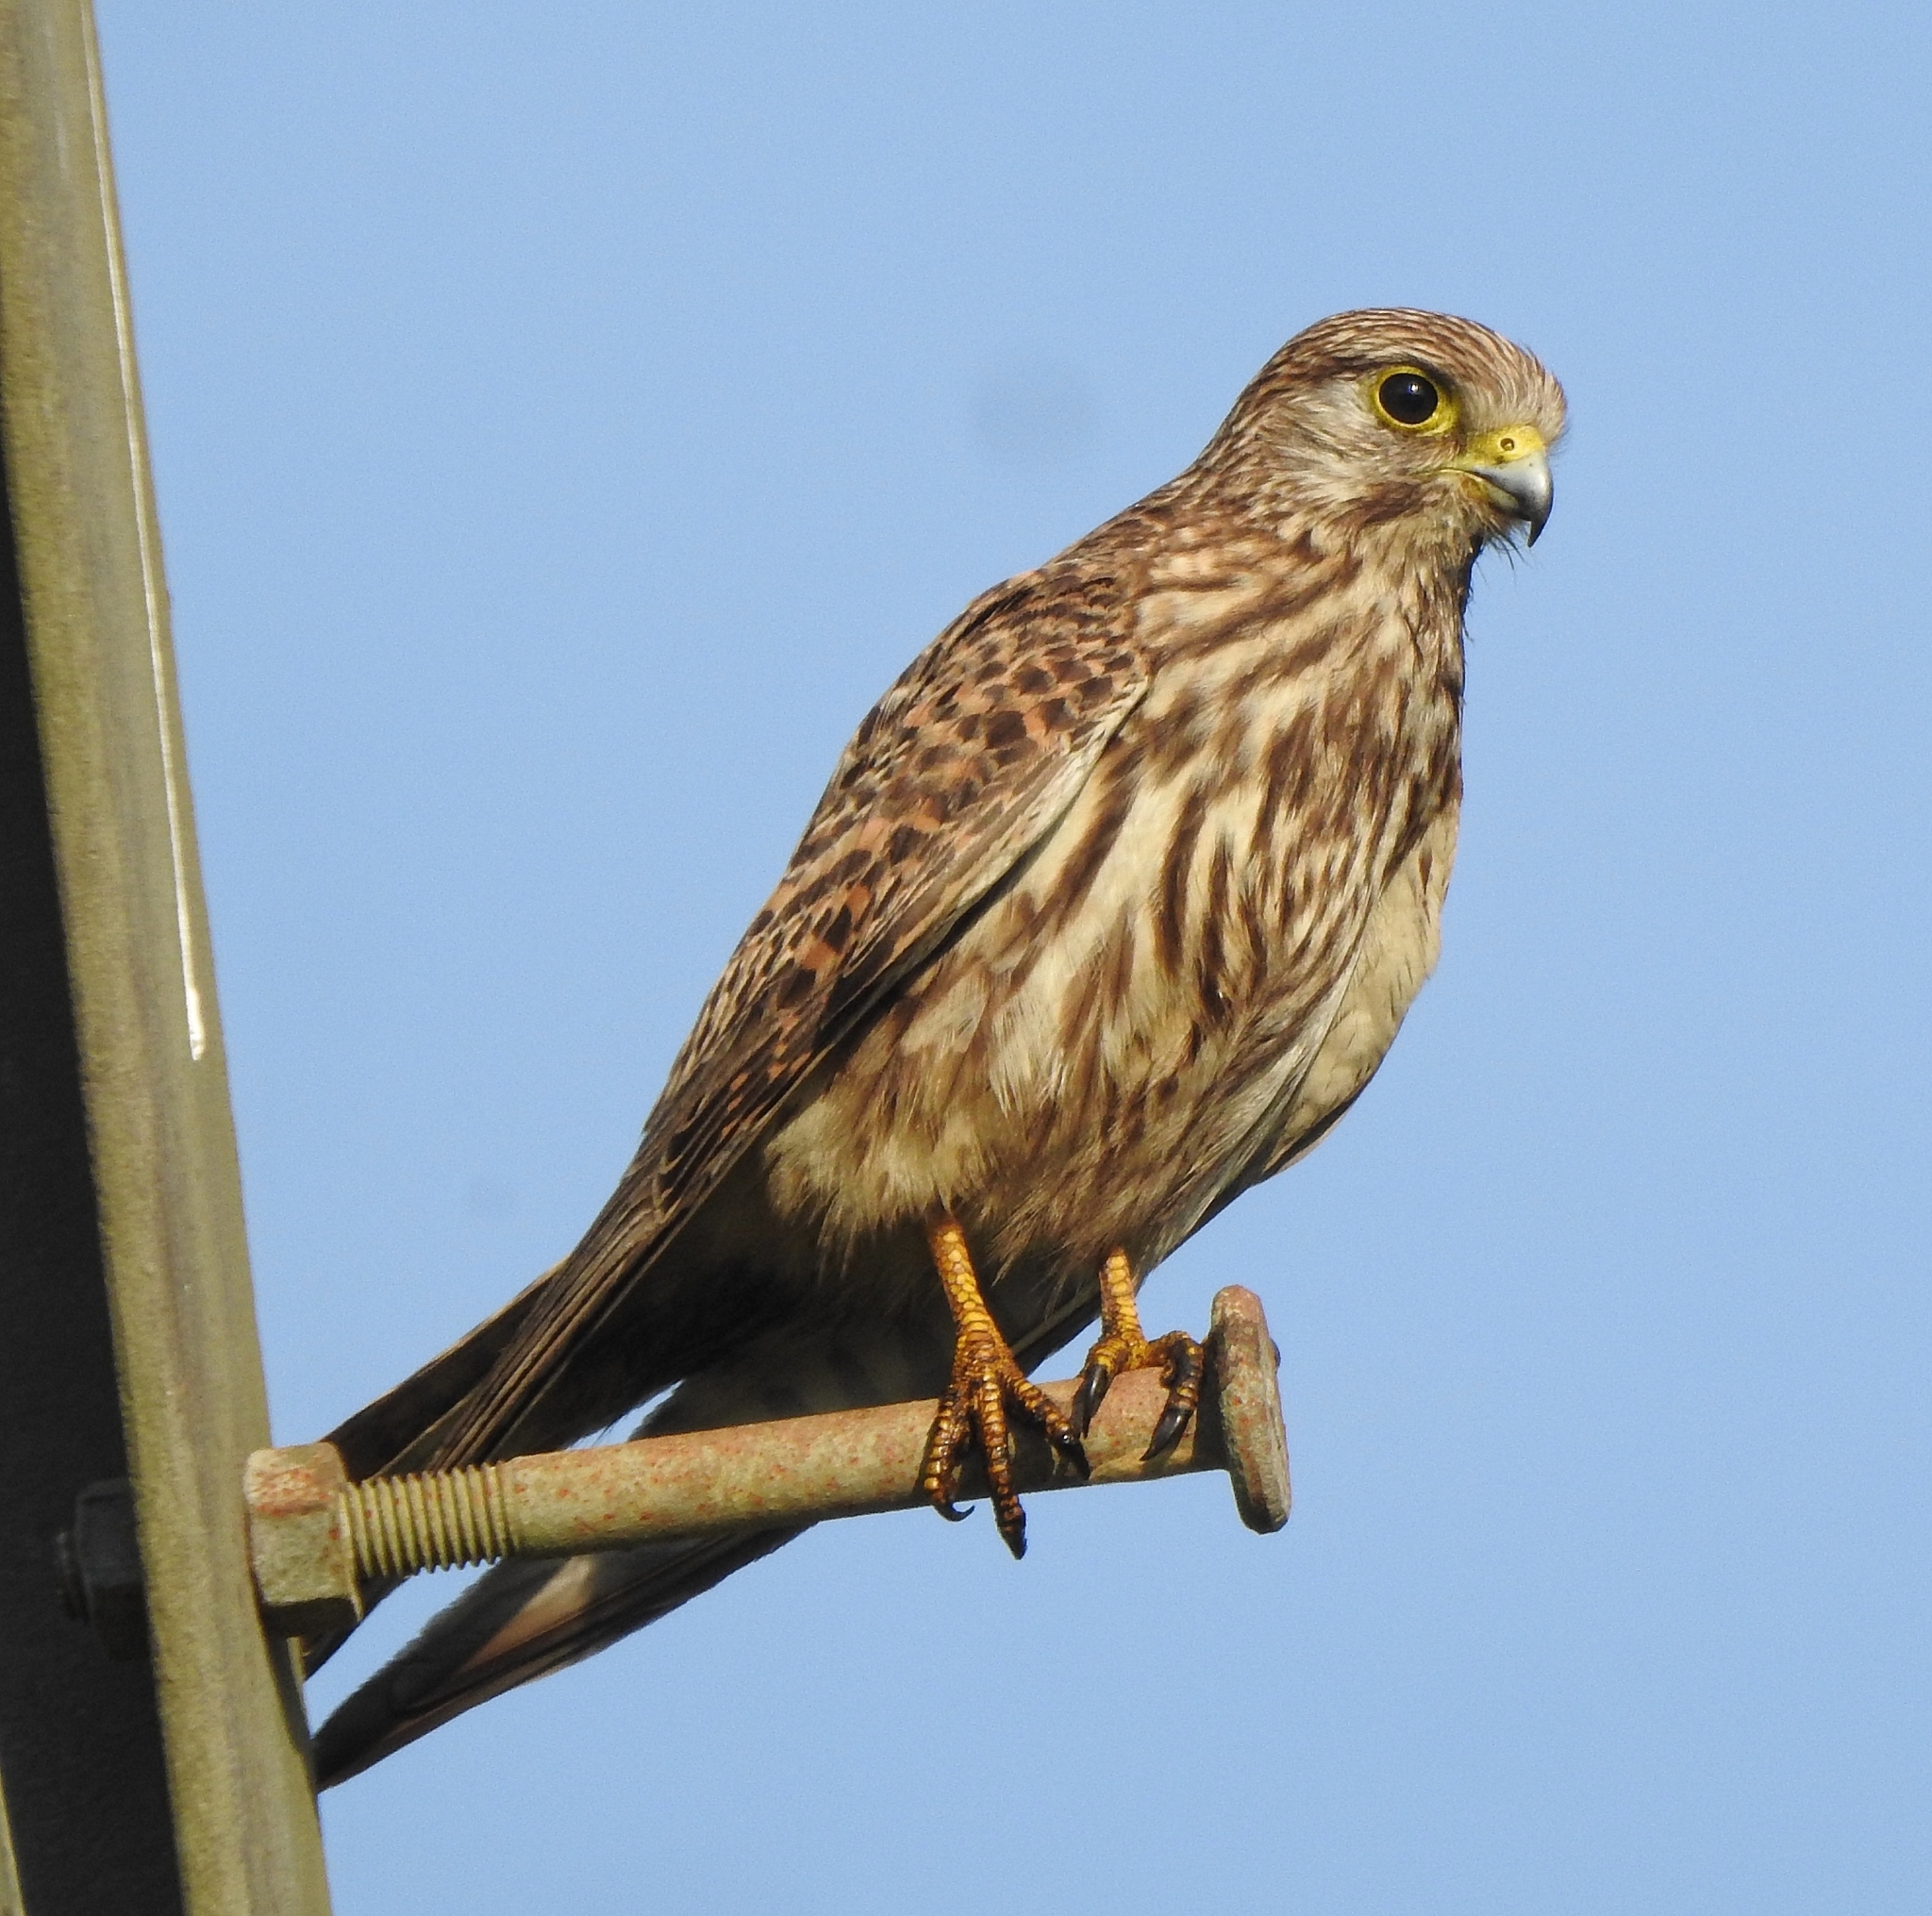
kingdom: Animalia
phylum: Chordata
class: Aves
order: Falconiformes
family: Falconidae
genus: Falco
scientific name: Falco tinnunculus
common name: Common kestrel
